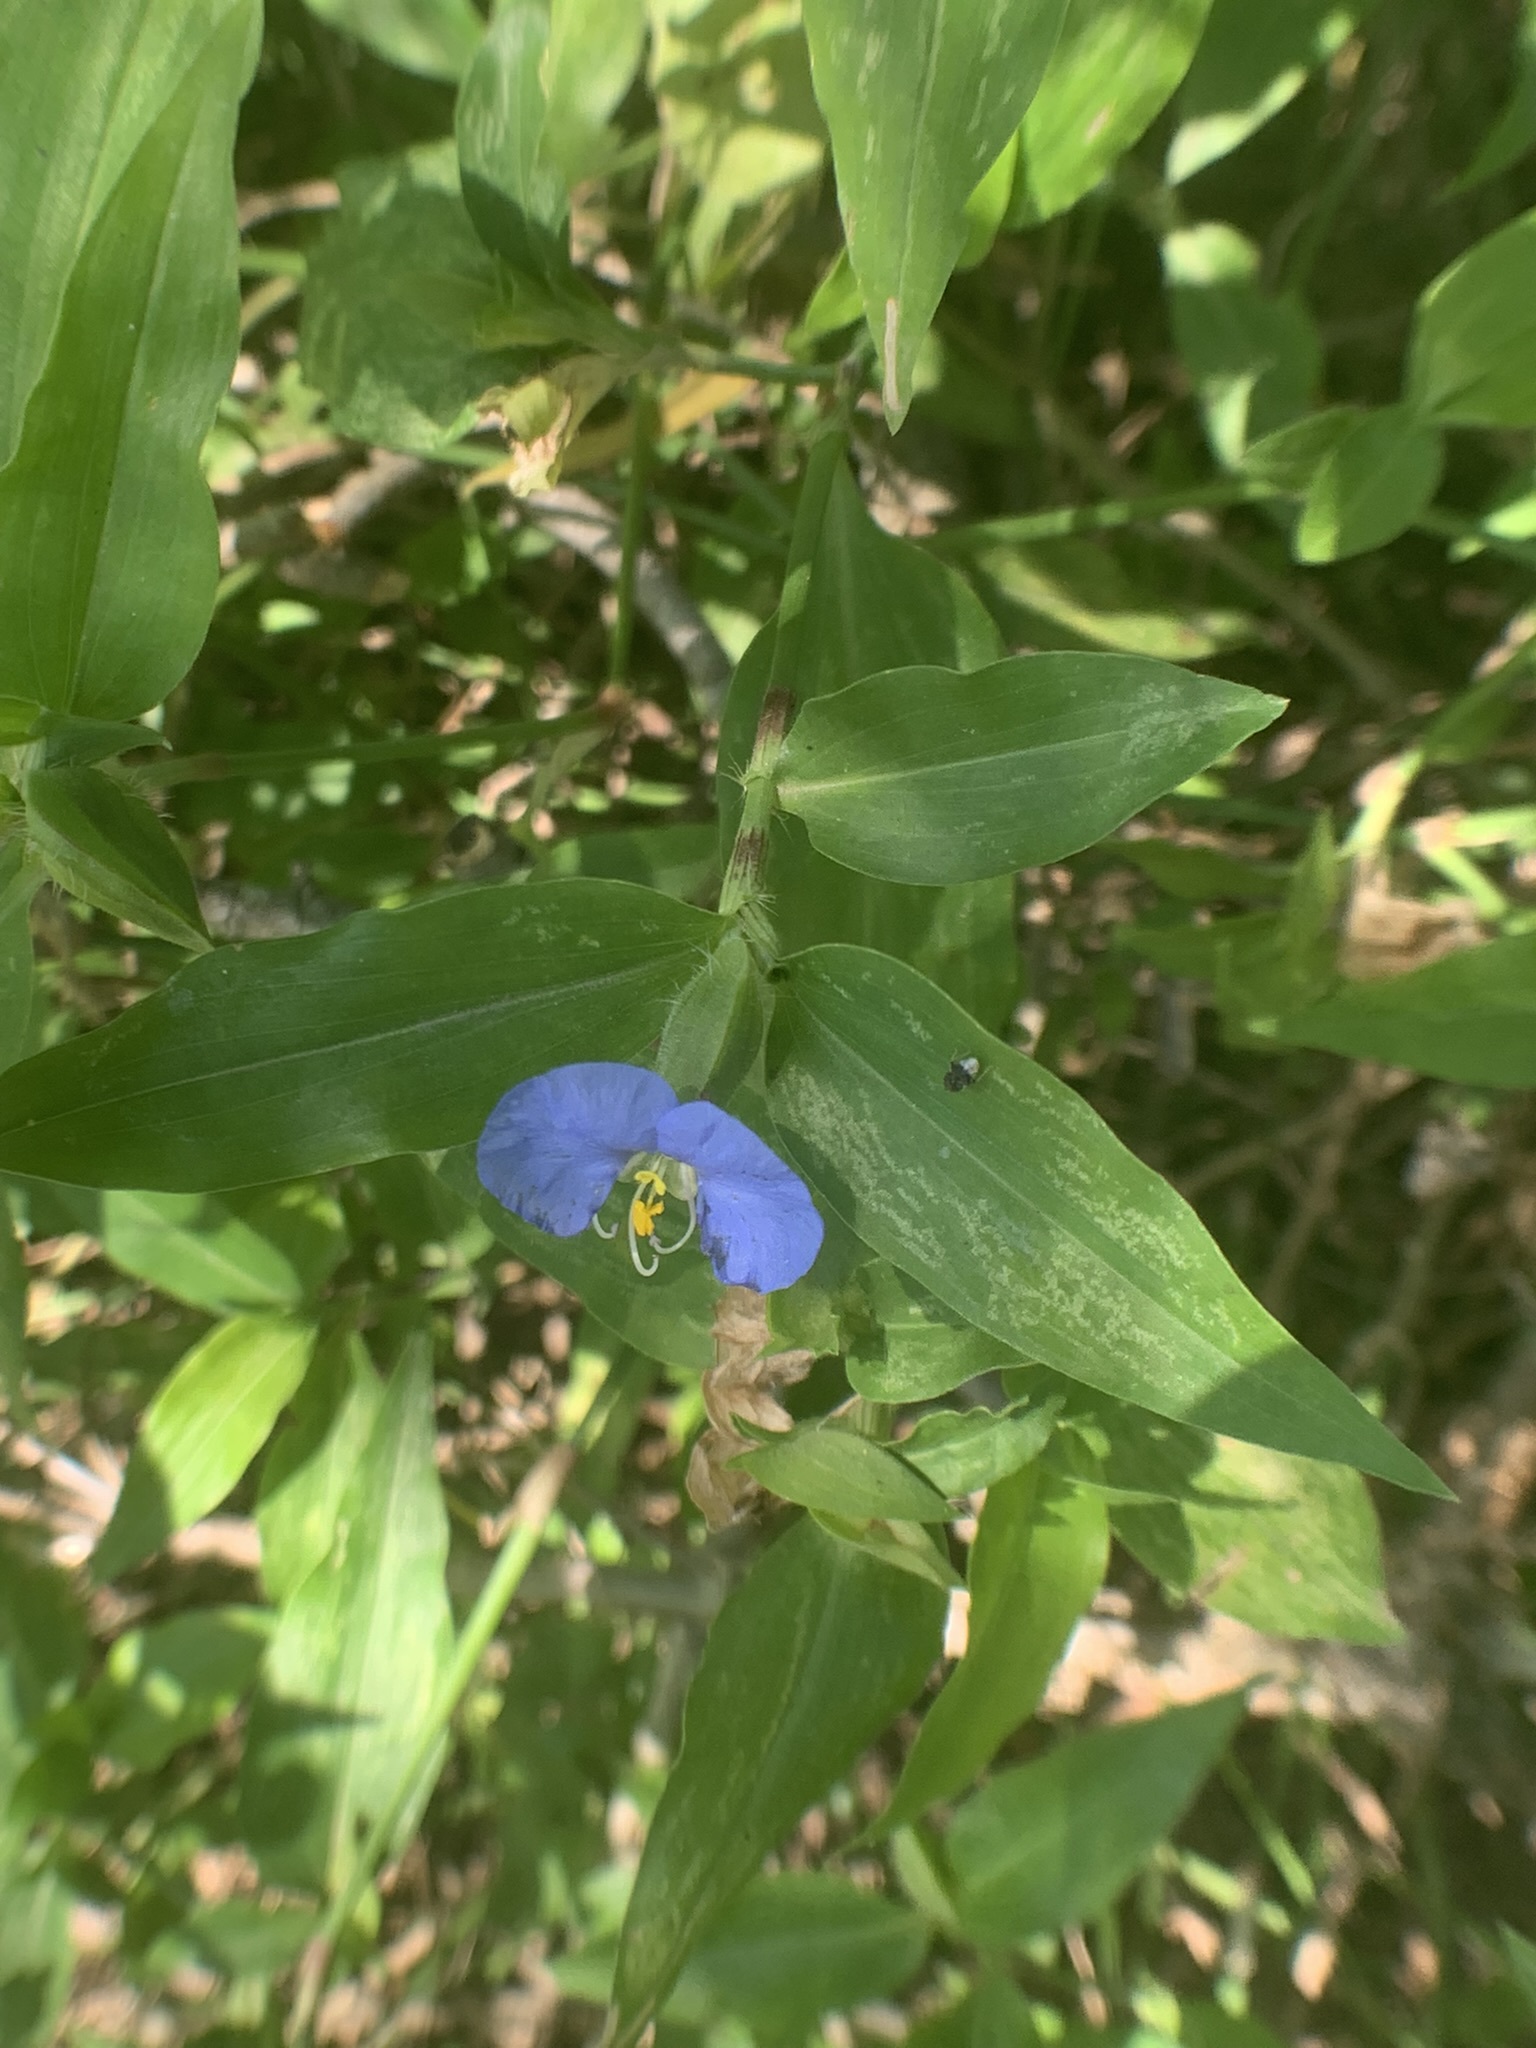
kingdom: Plantae
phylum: Tracheophyta
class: Liliopsida
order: Commelinales
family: Commelinaceae
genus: Commelina
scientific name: Commelina erecta
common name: Blousel blommetjie
